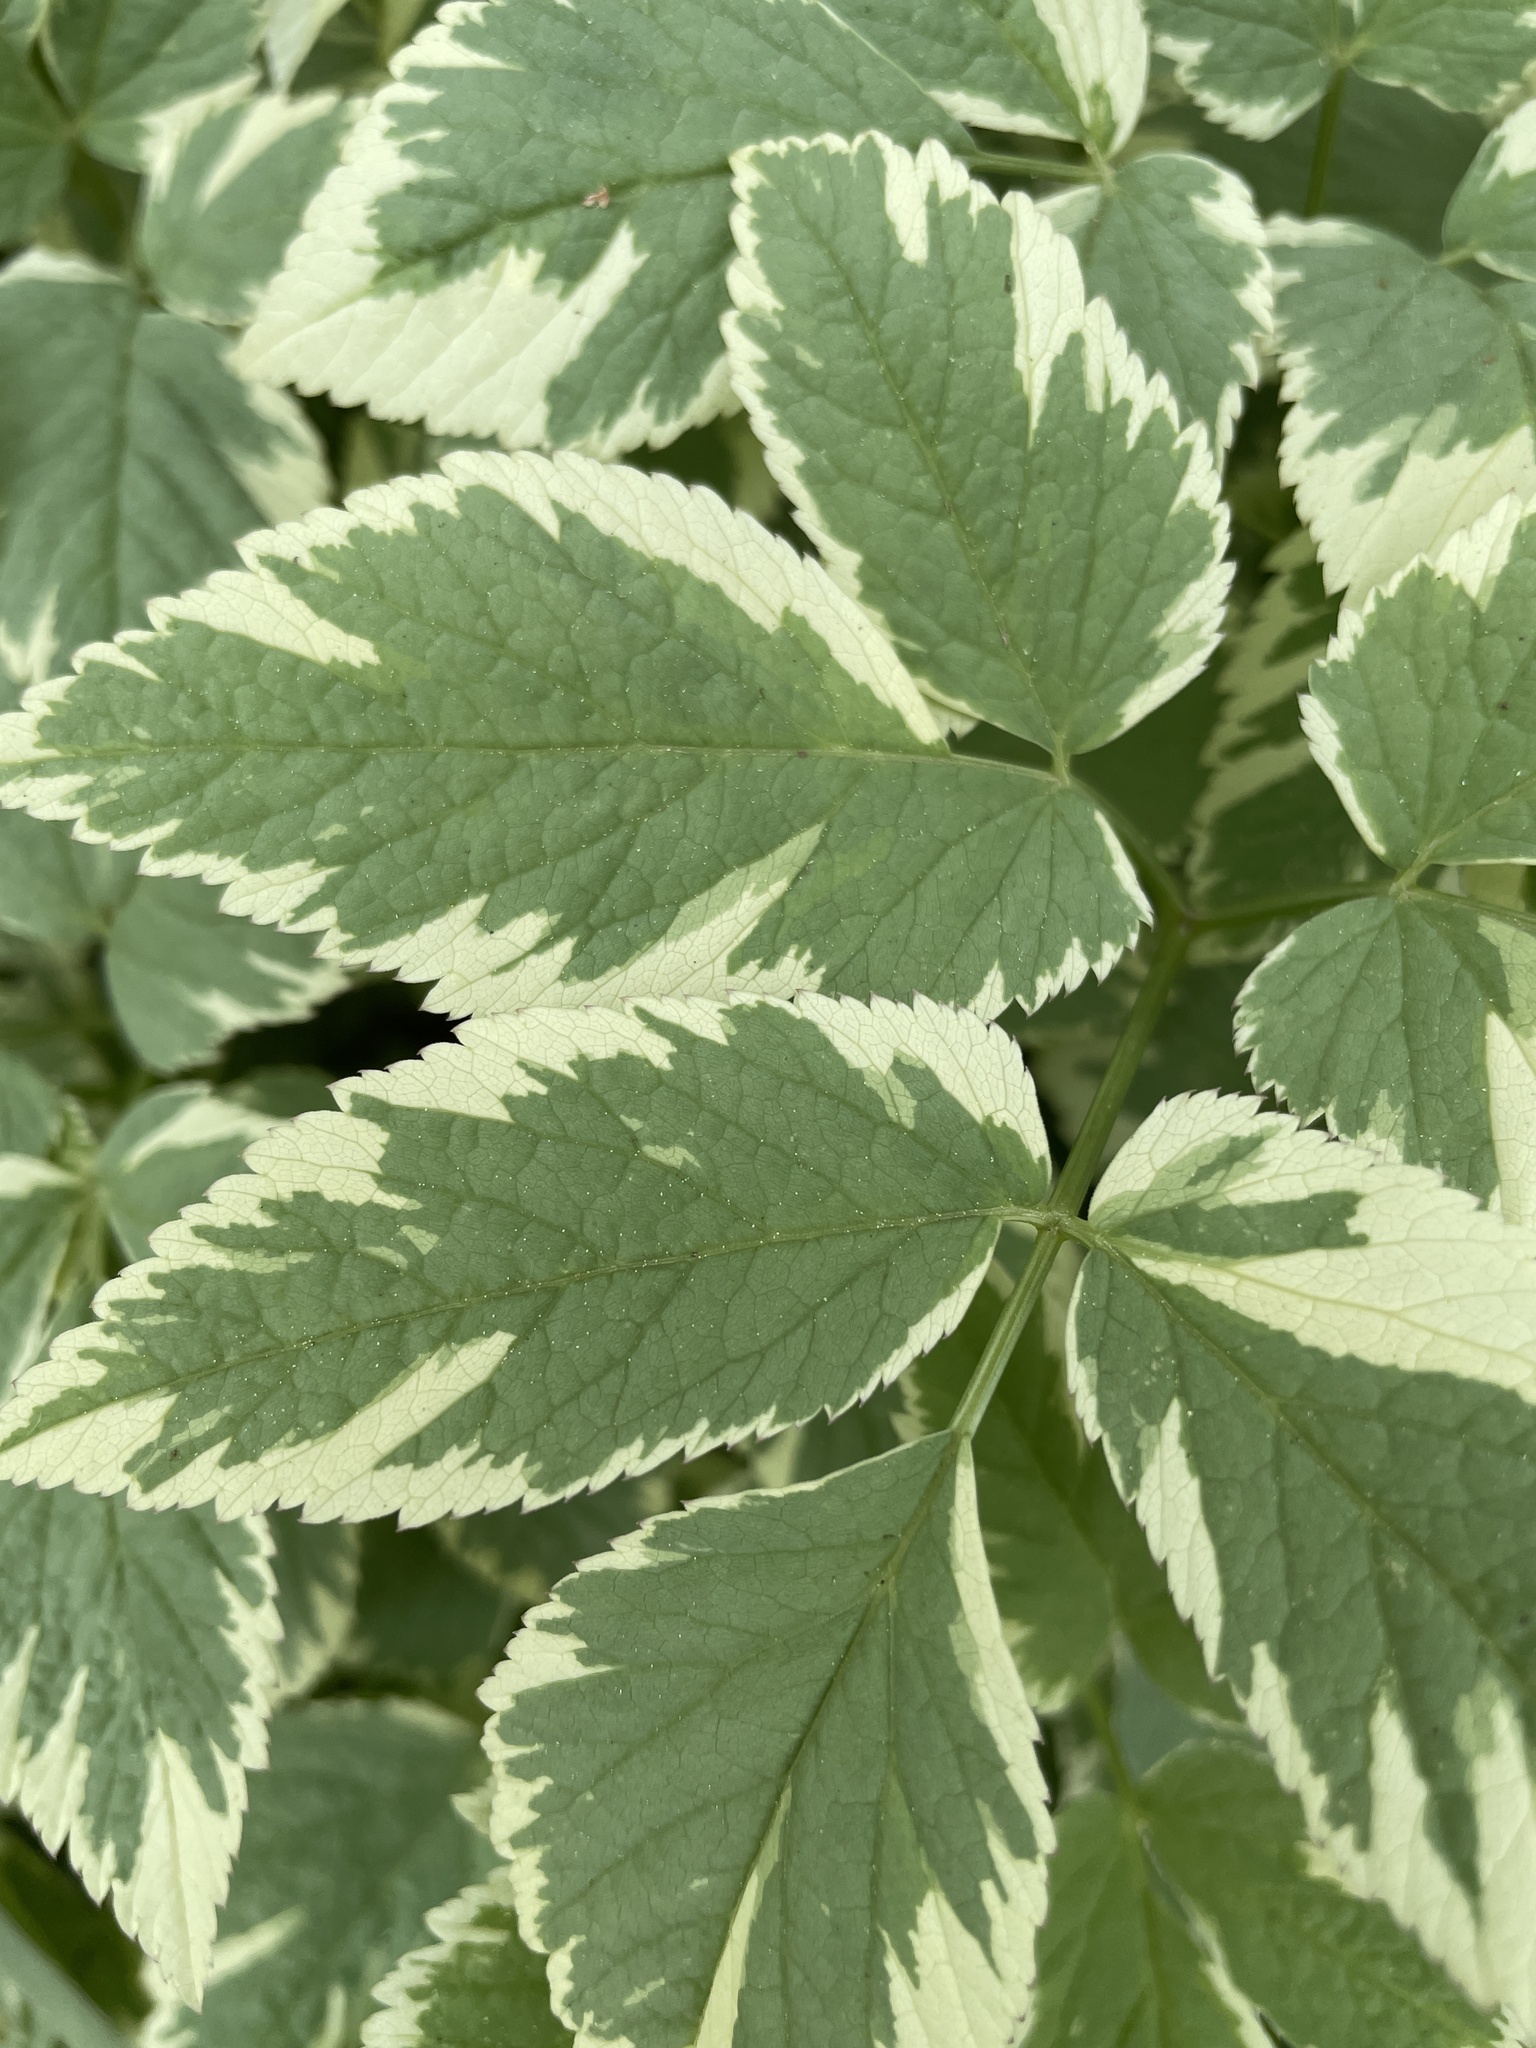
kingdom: Plantae
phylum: Tracheophyta
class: Magnoliopsida
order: Apiales
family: Apiaceae
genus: Aegopodium
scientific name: Aegopodium podagraria
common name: Ground-elder
